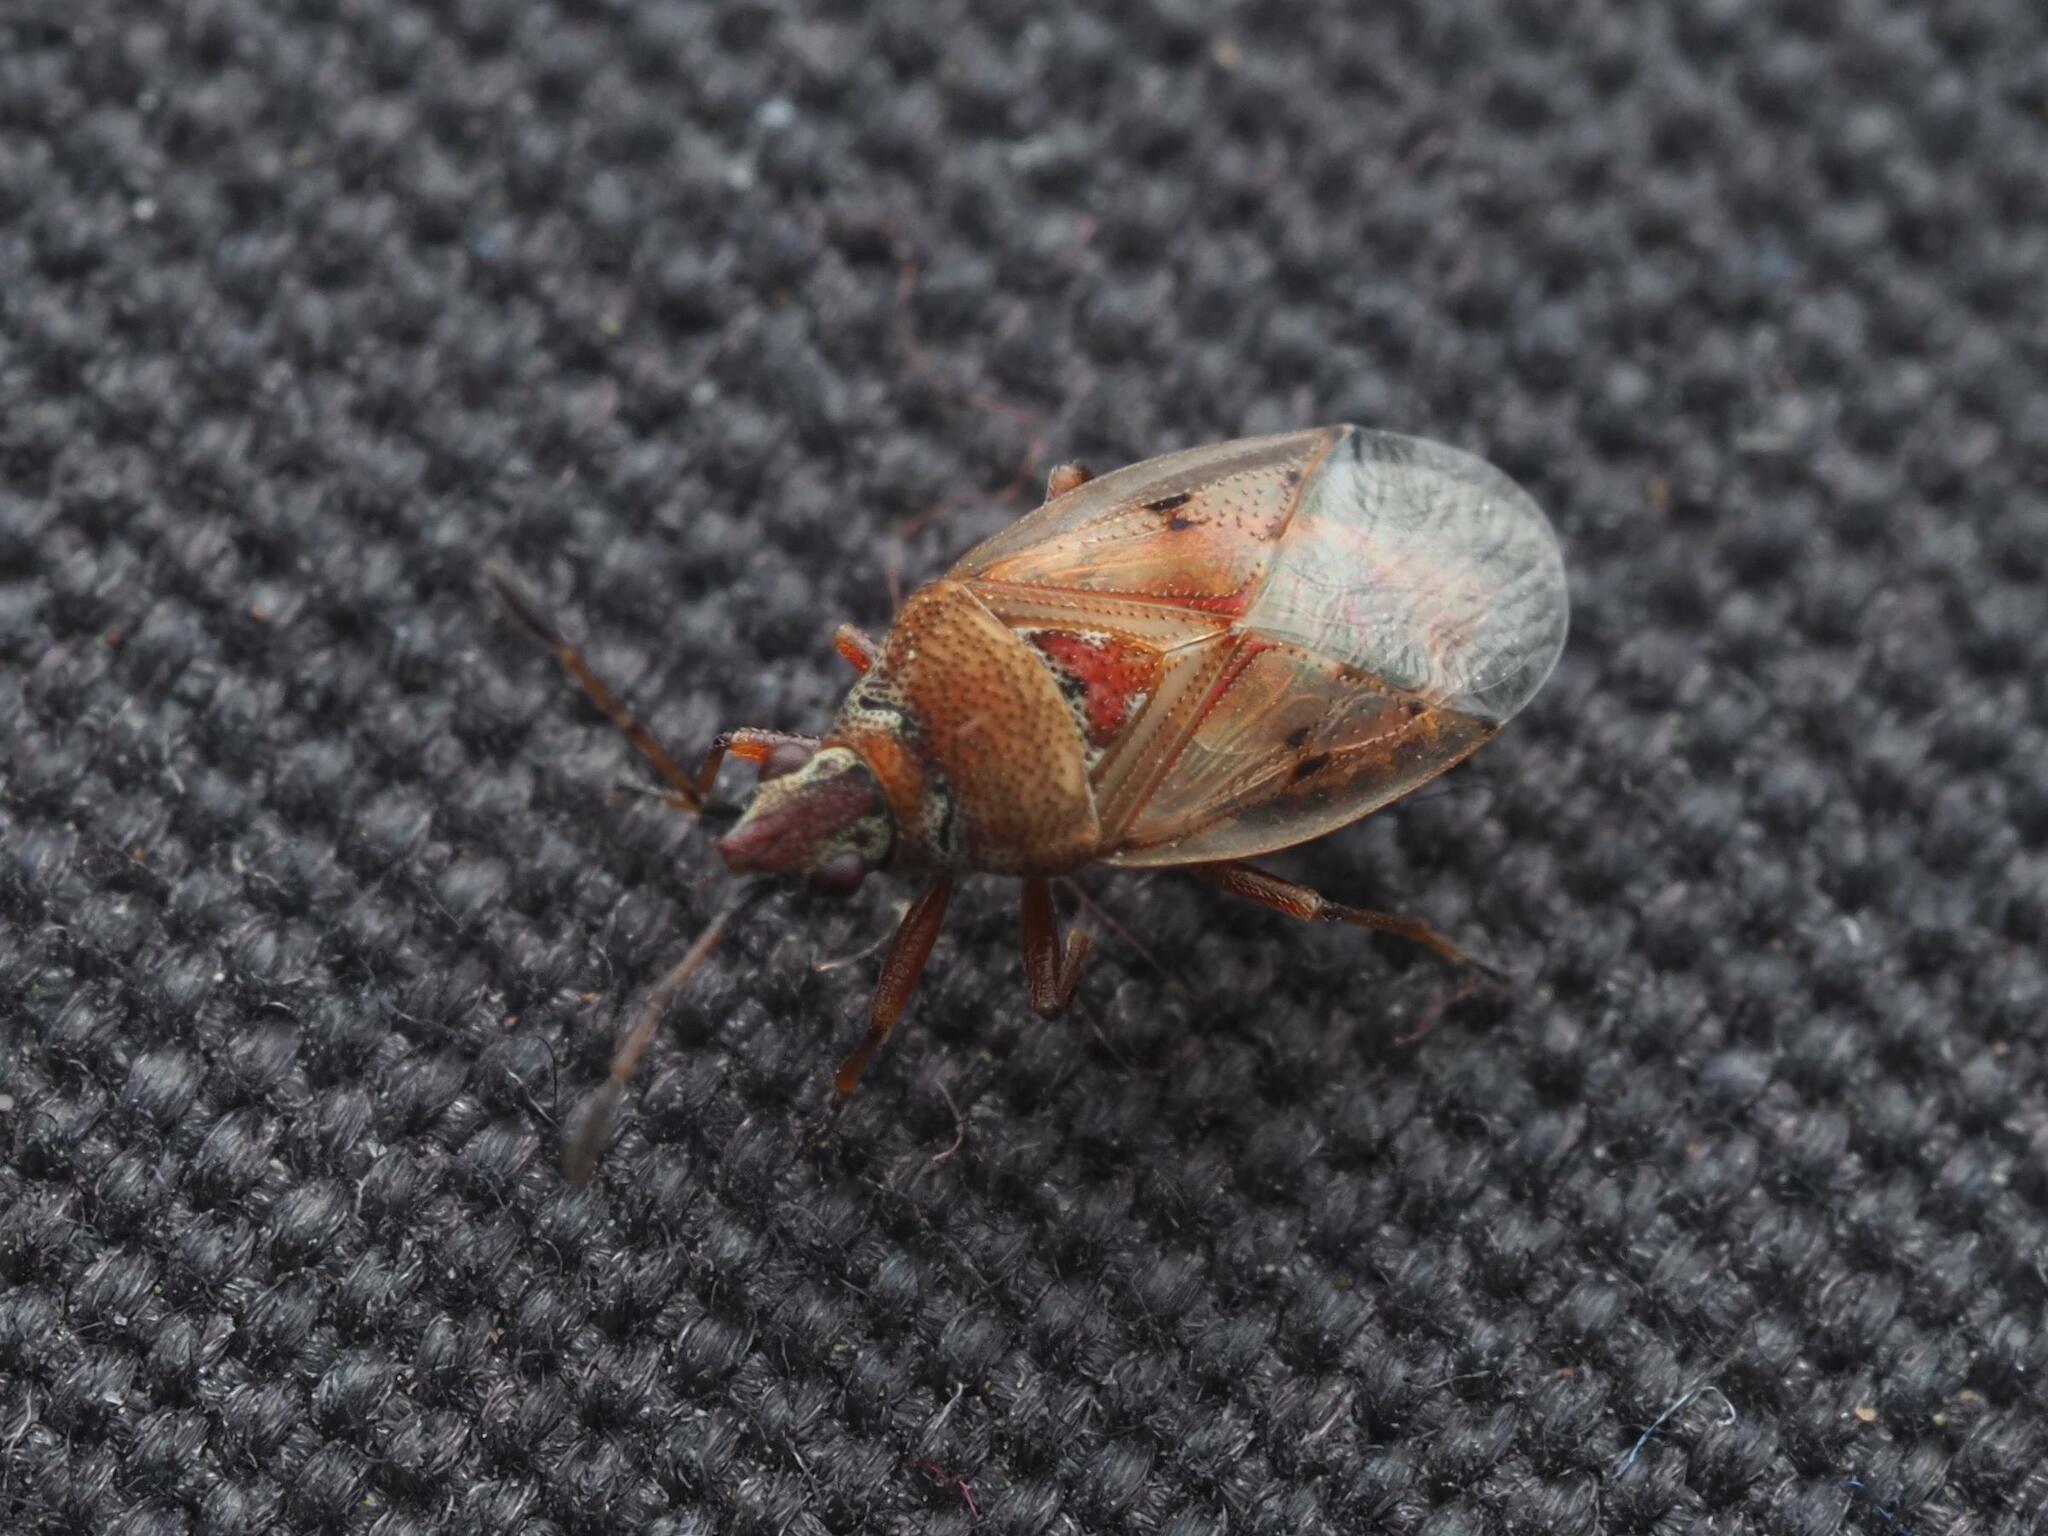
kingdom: Animalia
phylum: Arthropoda
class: Insecta
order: Hemiptera
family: Lygaeidae
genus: Kleidocerys
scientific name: Kleidocerys resedae
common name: Birch catkin bug
